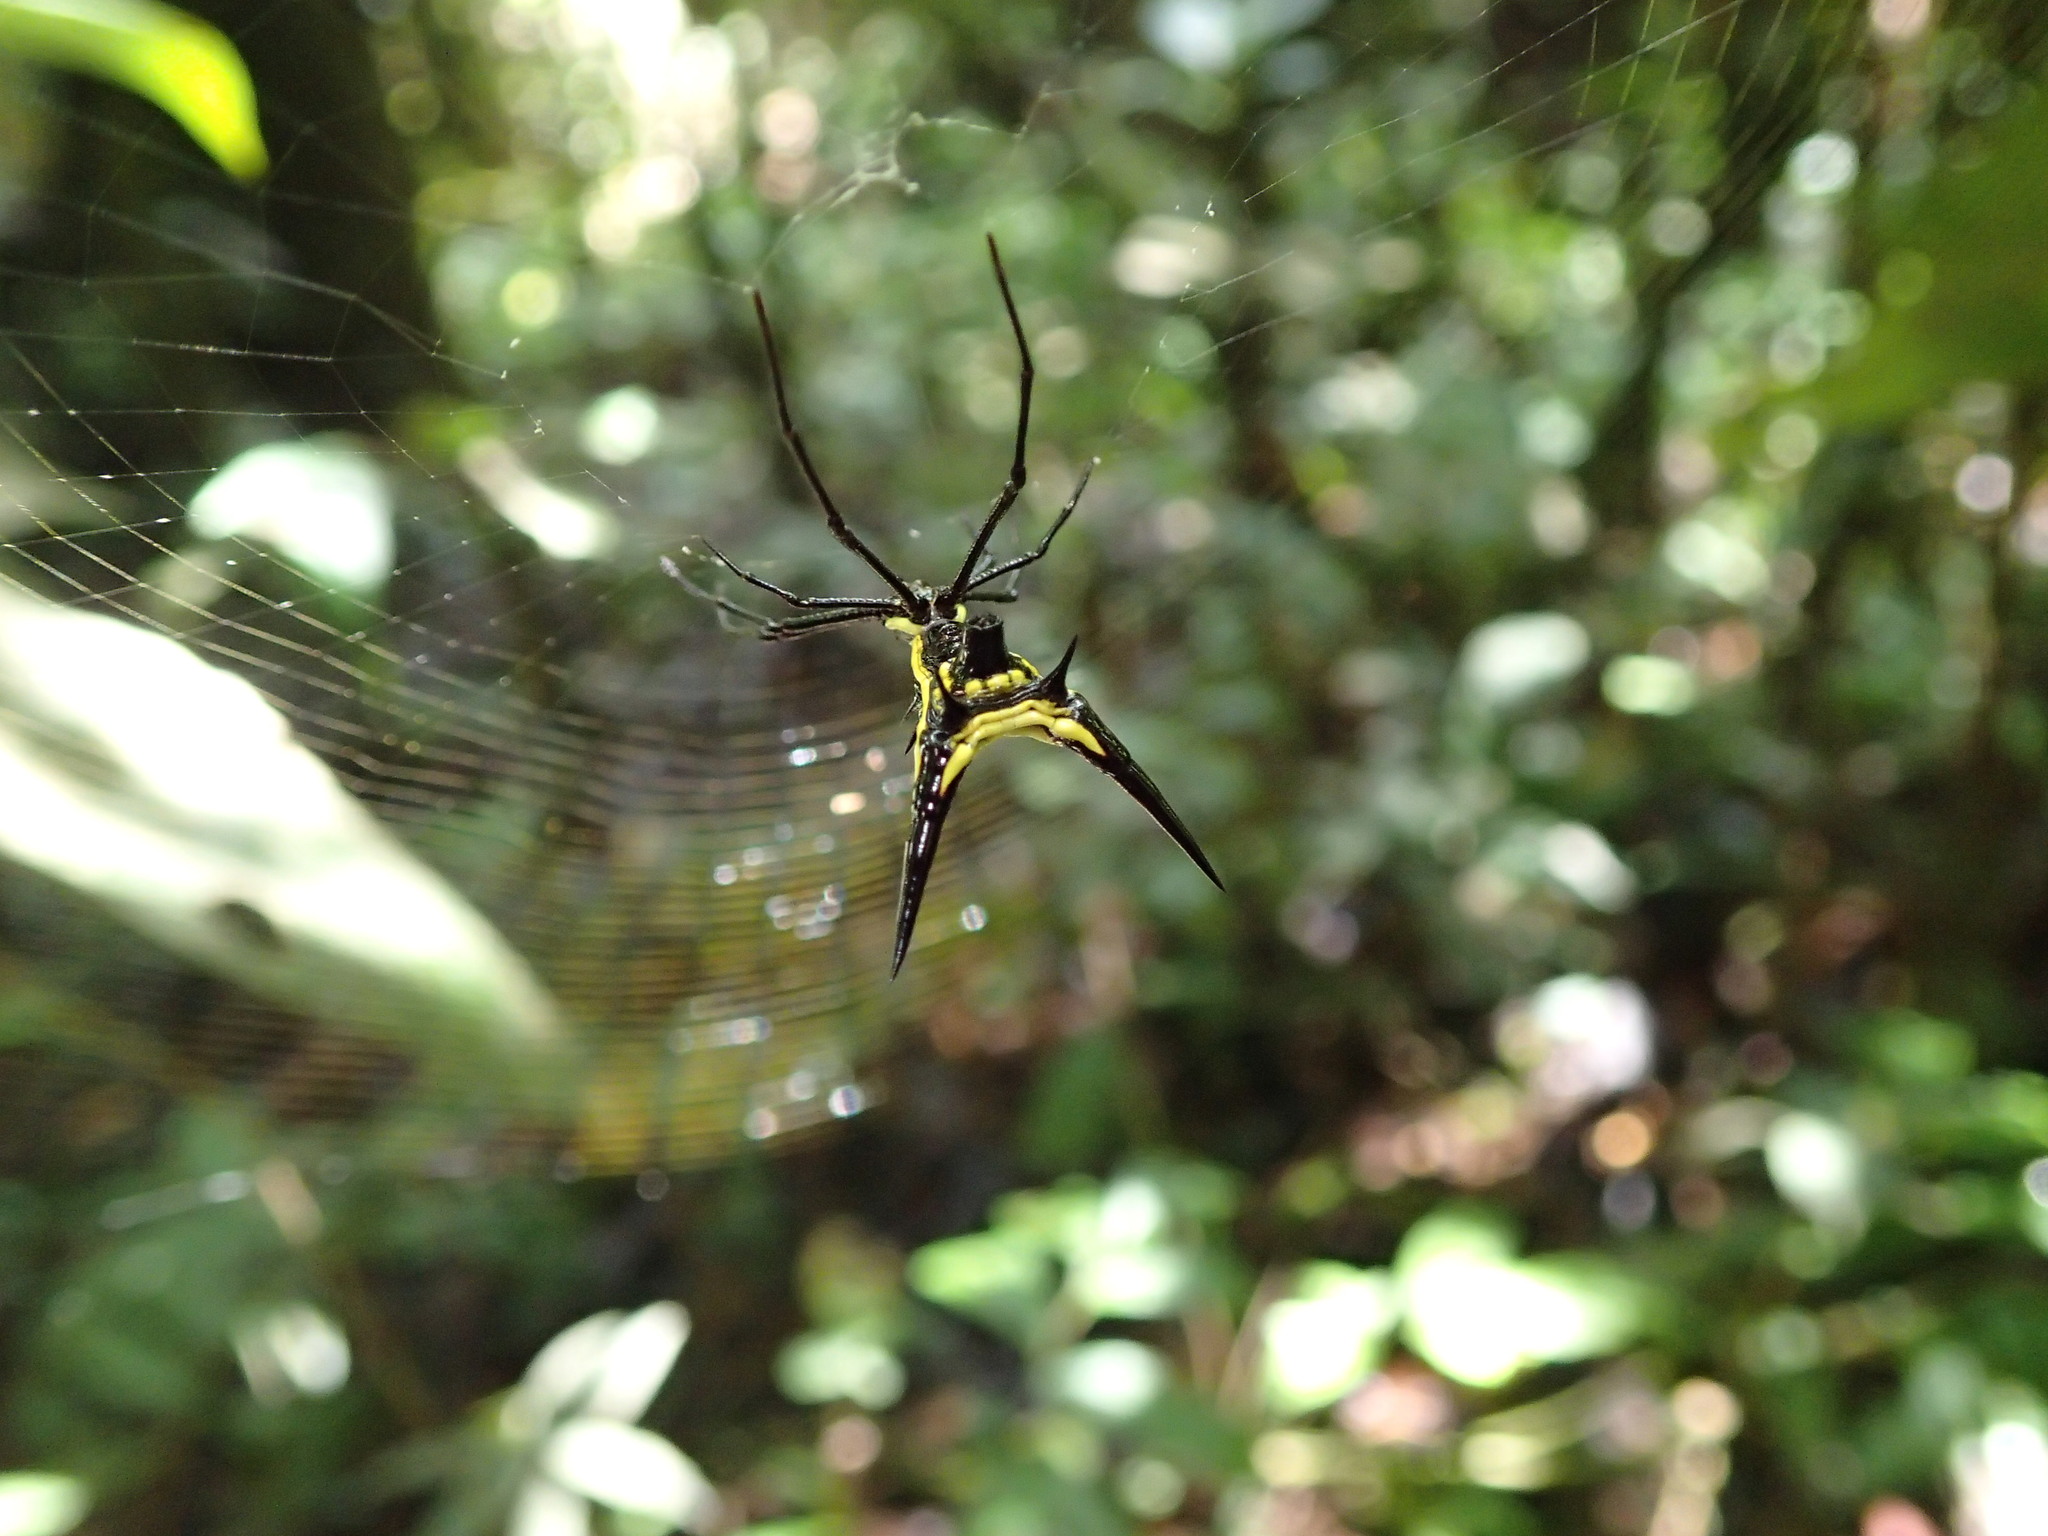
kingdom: Animalia
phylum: Arthropoda
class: Arachnida
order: Araneae
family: Araneidae
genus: Micrathena
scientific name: Micrathena schreibersi
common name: Orb weavers
